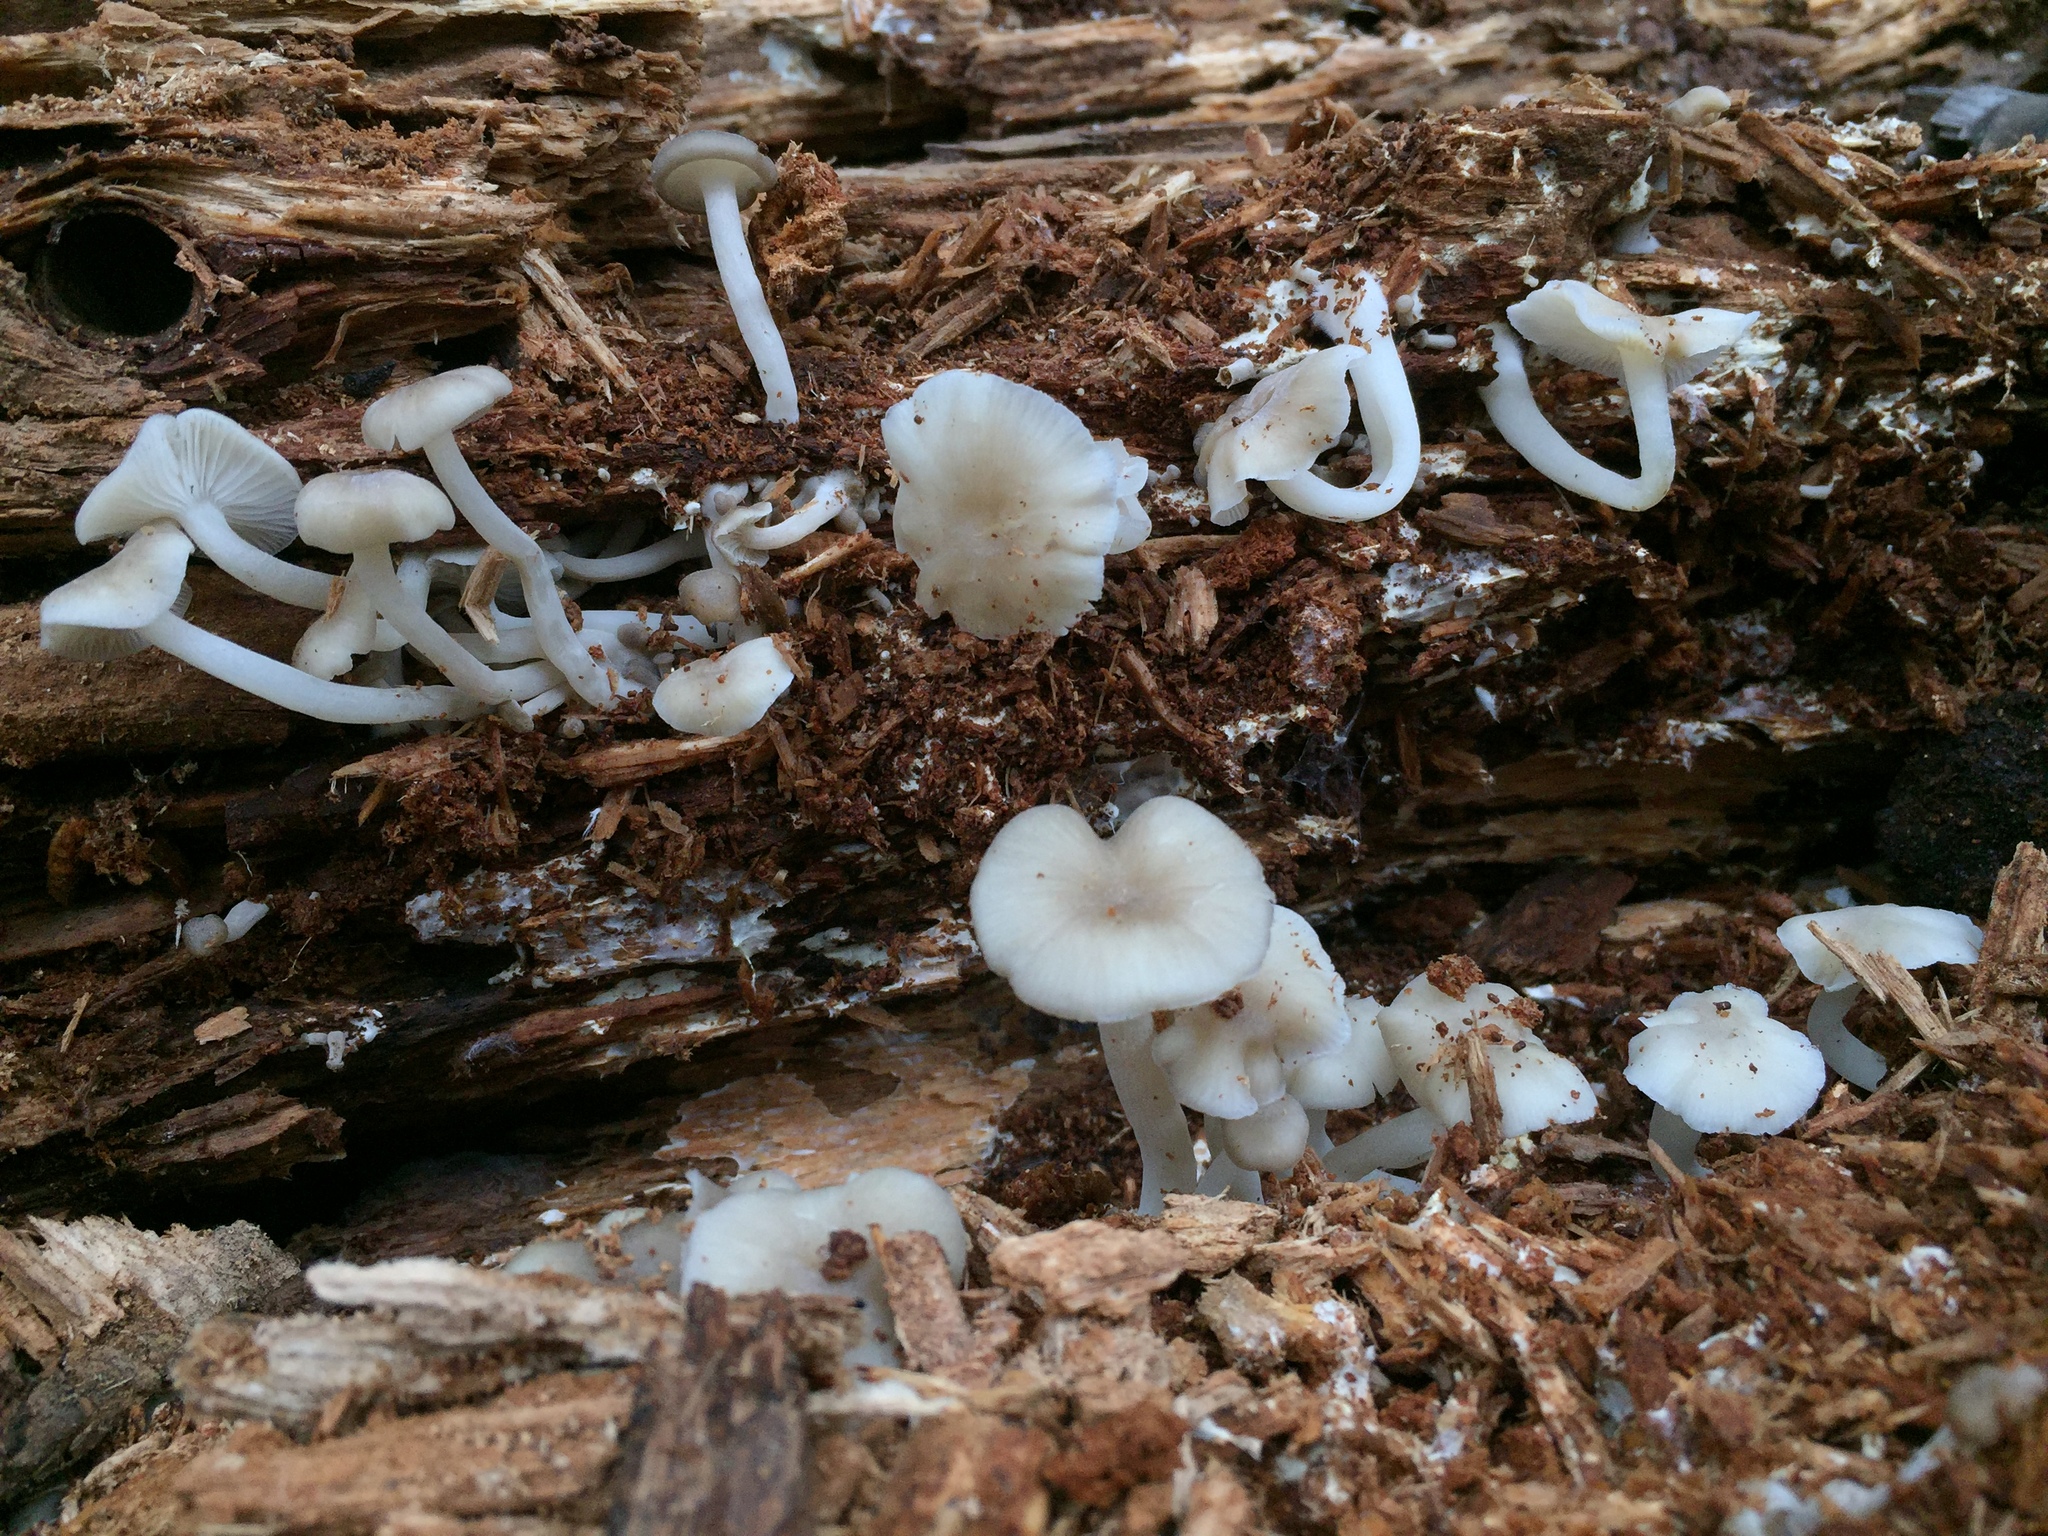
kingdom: Fungi
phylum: Basidiomycota
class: Agaricomycetes
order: Agaricales
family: Marasmiaceae
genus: Clitocybula
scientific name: Clitocybula familia
